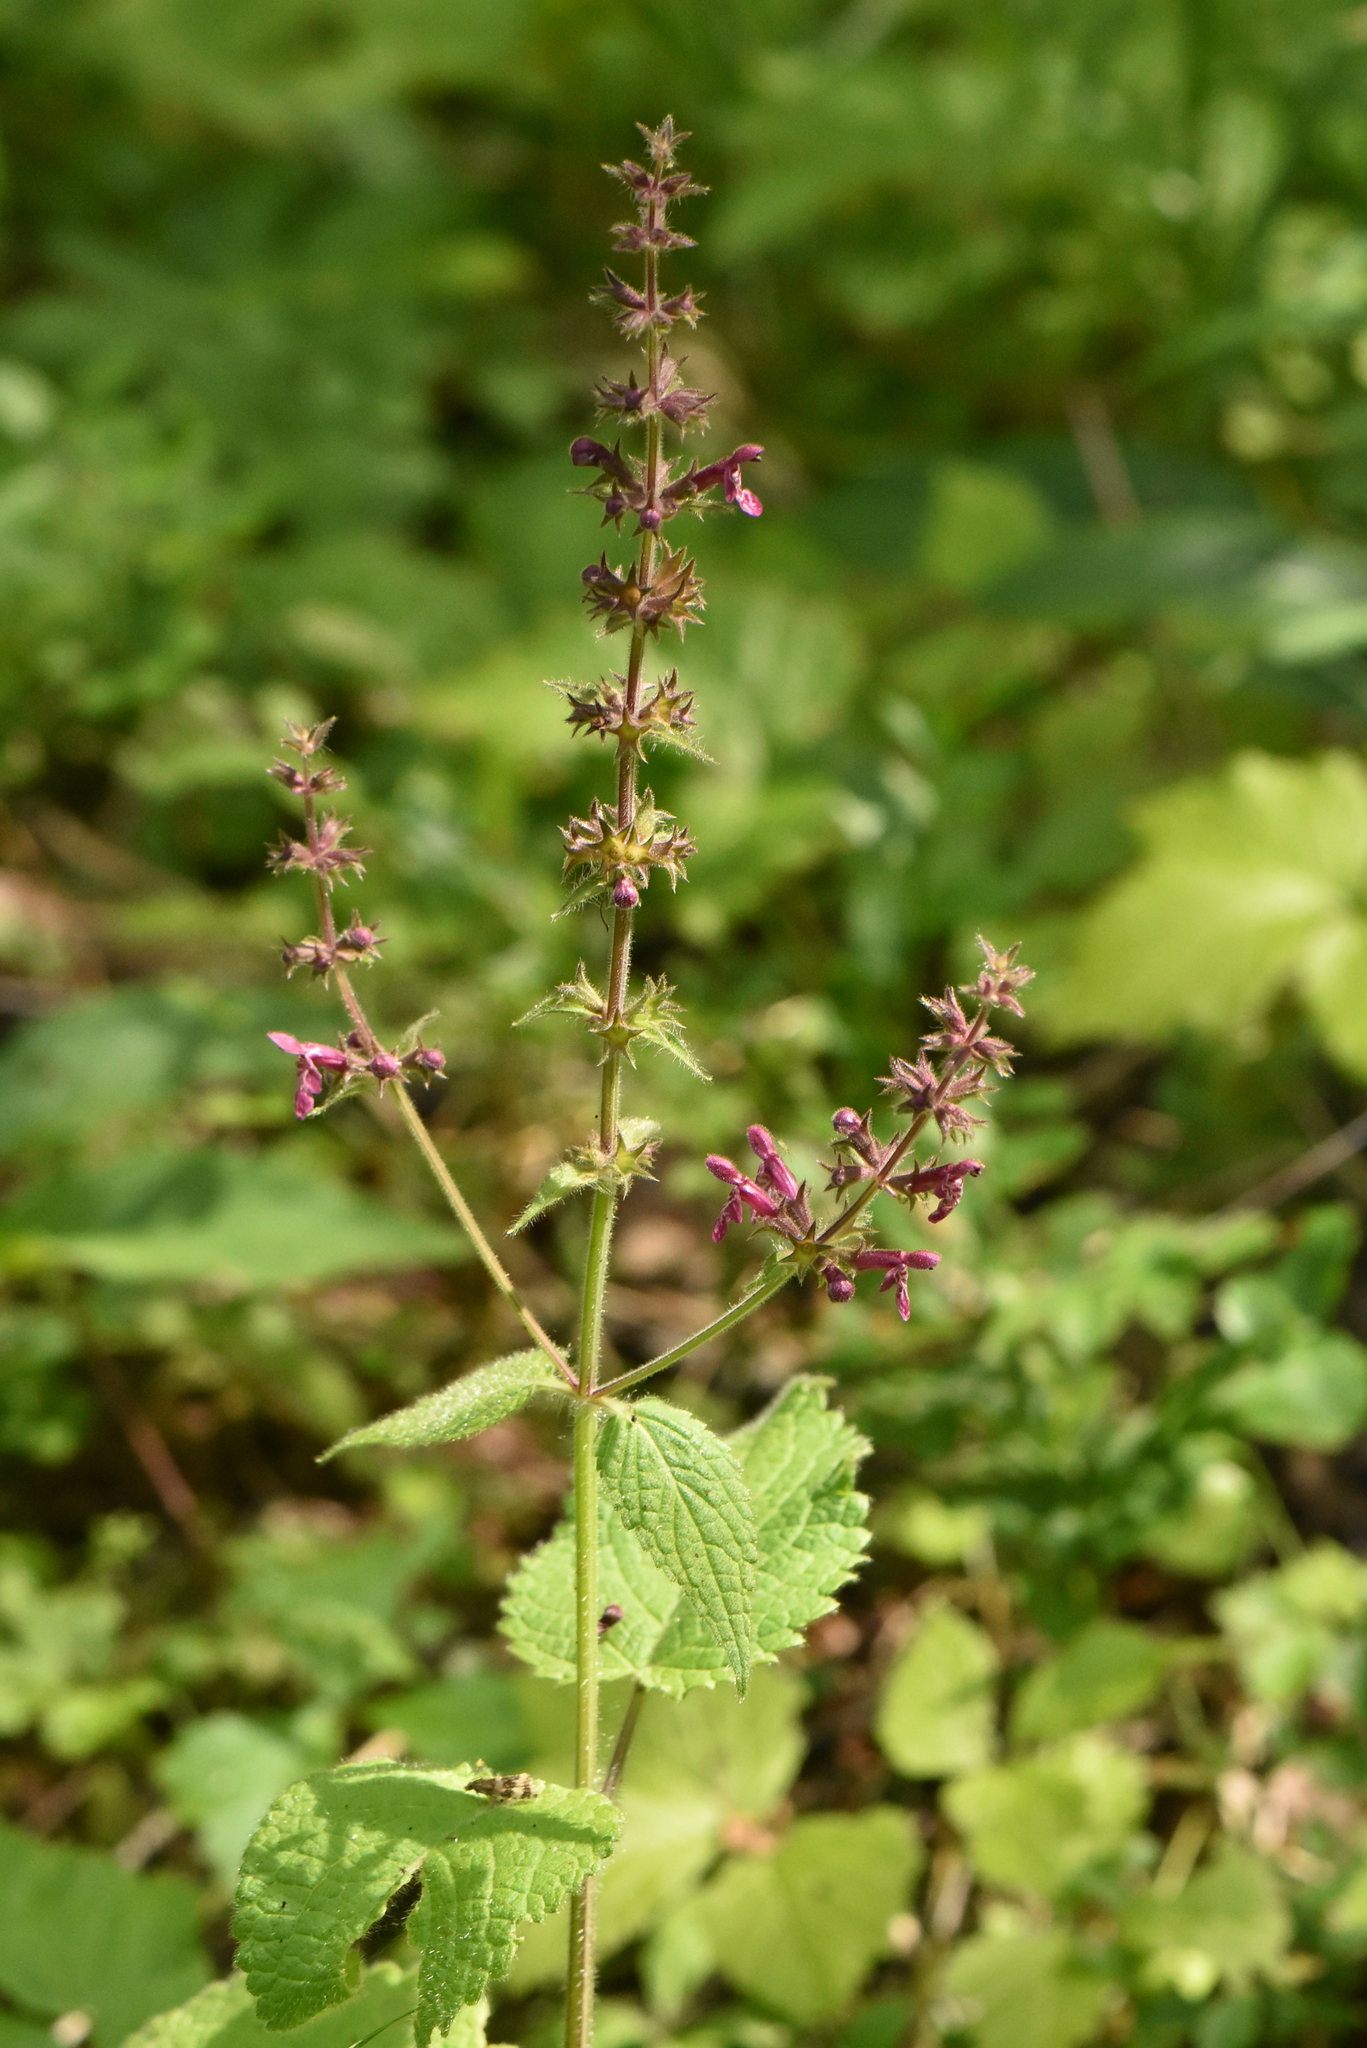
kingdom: Plantae
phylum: Tracheophyta
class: Magnoliopsida
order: Lamiales
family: Lamiaceae
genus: Stachys
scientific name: Stachys sylvatica
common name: Hedge woundwort
